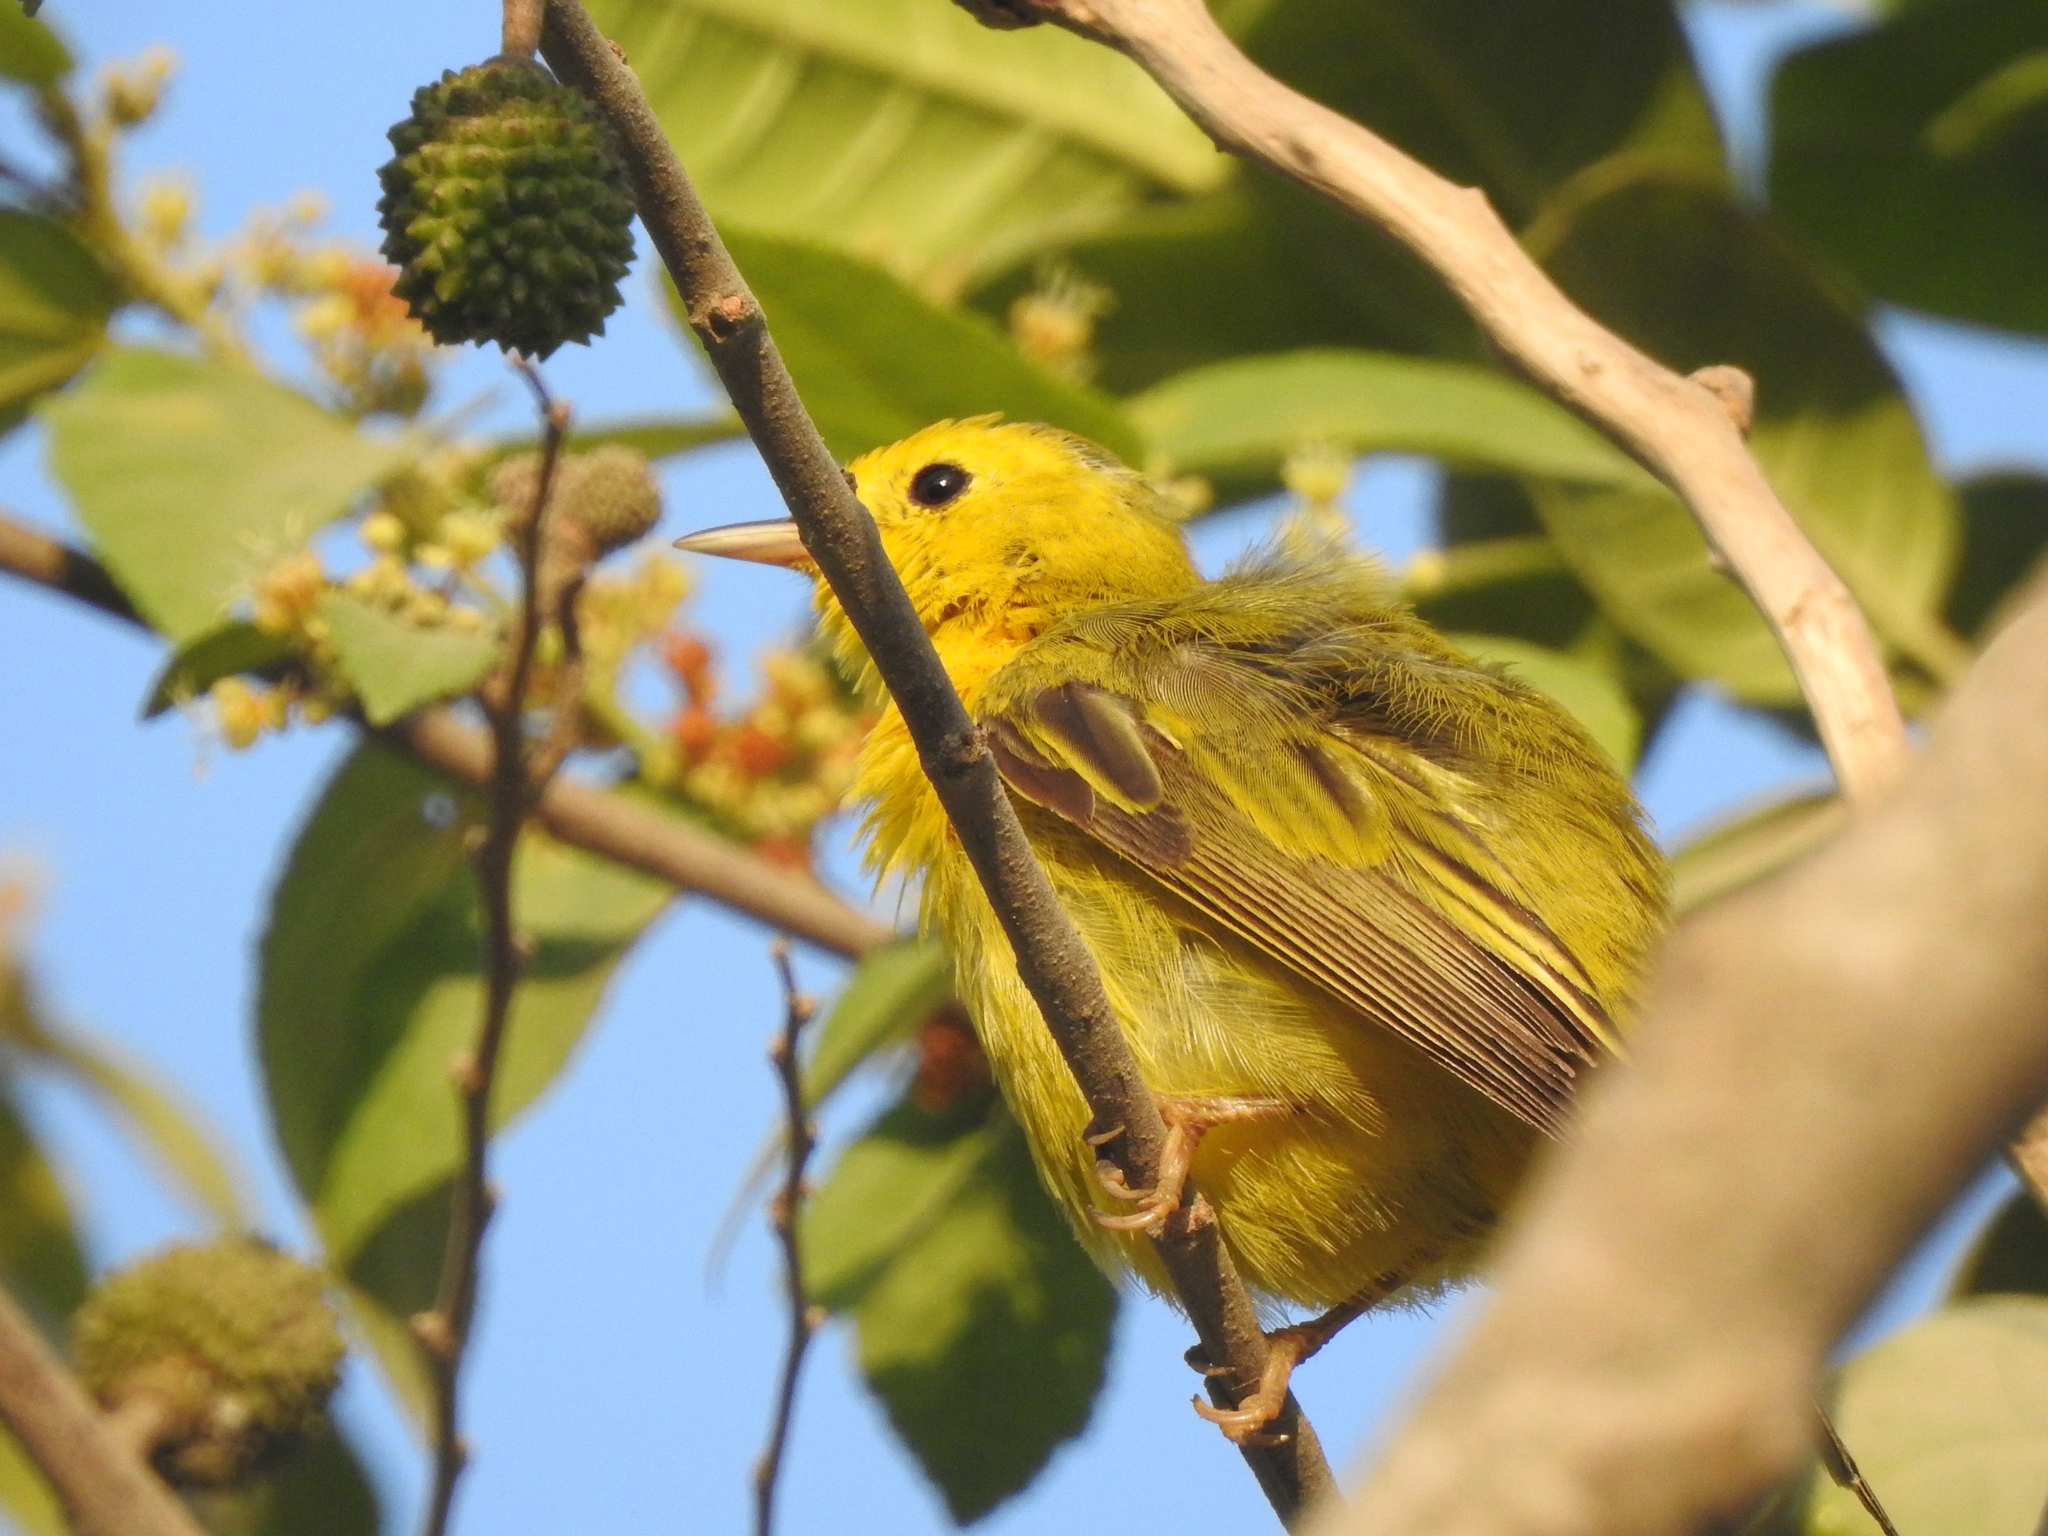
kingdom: Animalia
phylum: Chordata
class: Aves
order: Passeriformes
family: Parulidae
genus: Setophaga
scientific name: Setophaga petechia
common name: Yellow warbler
